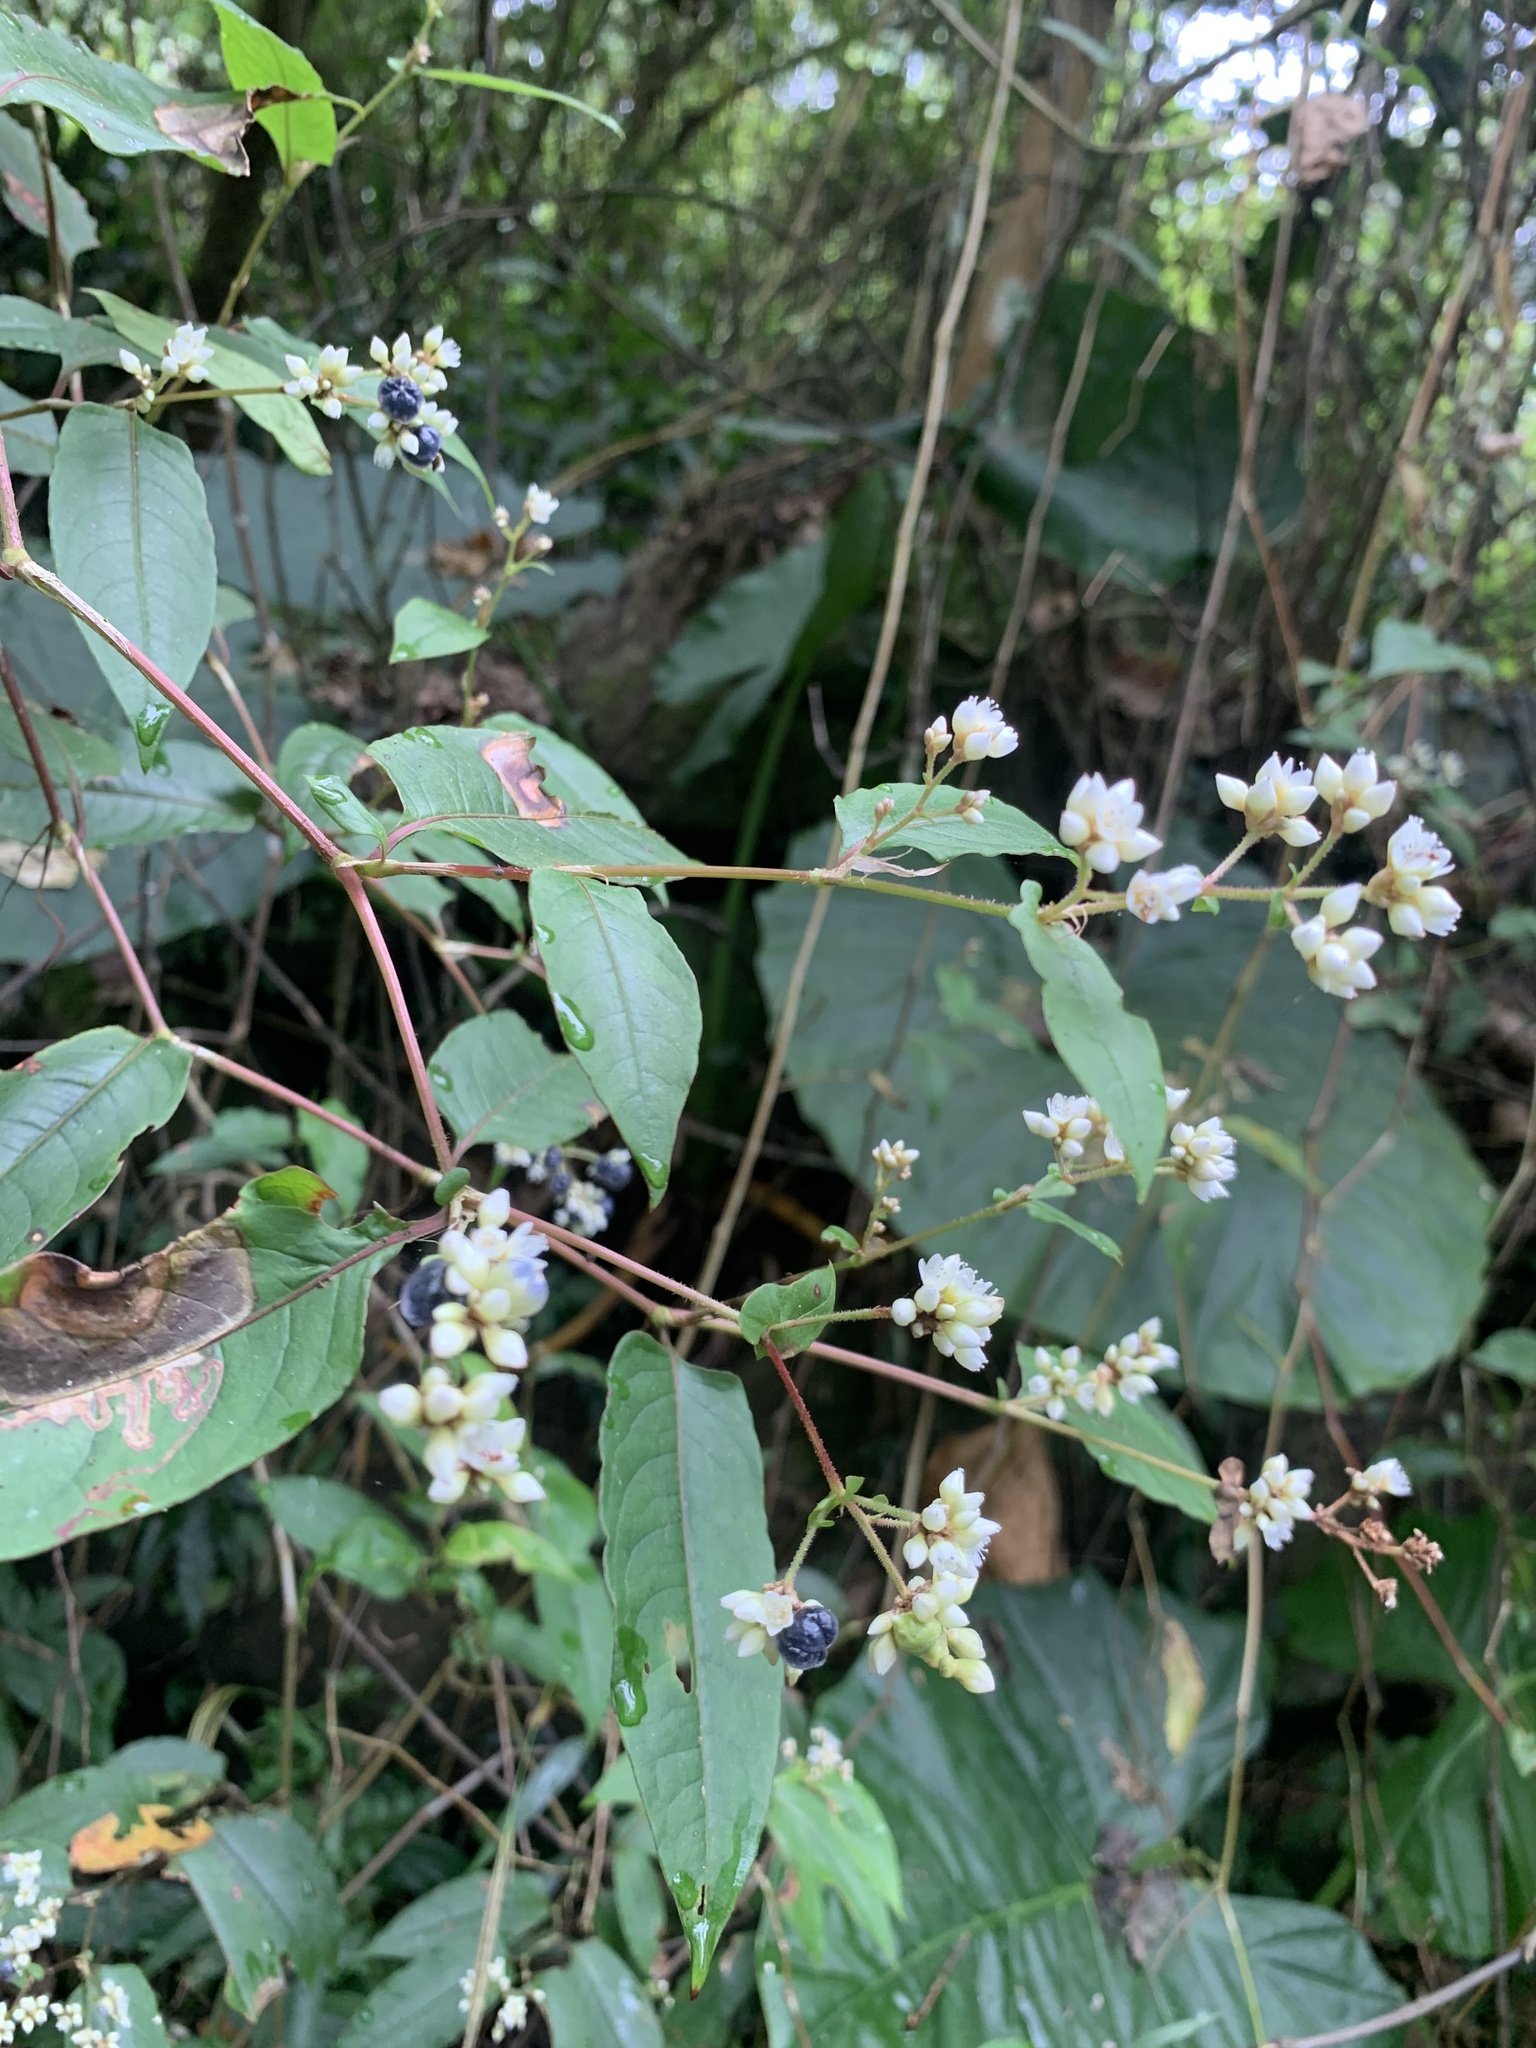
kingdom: Plantae
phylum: Tracheophyta
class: Magnoliopsida
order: Caryophyllales
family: Polygonaceae
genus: Persicaria
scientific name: Persicaria chinensis
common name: Chinese knotweed
